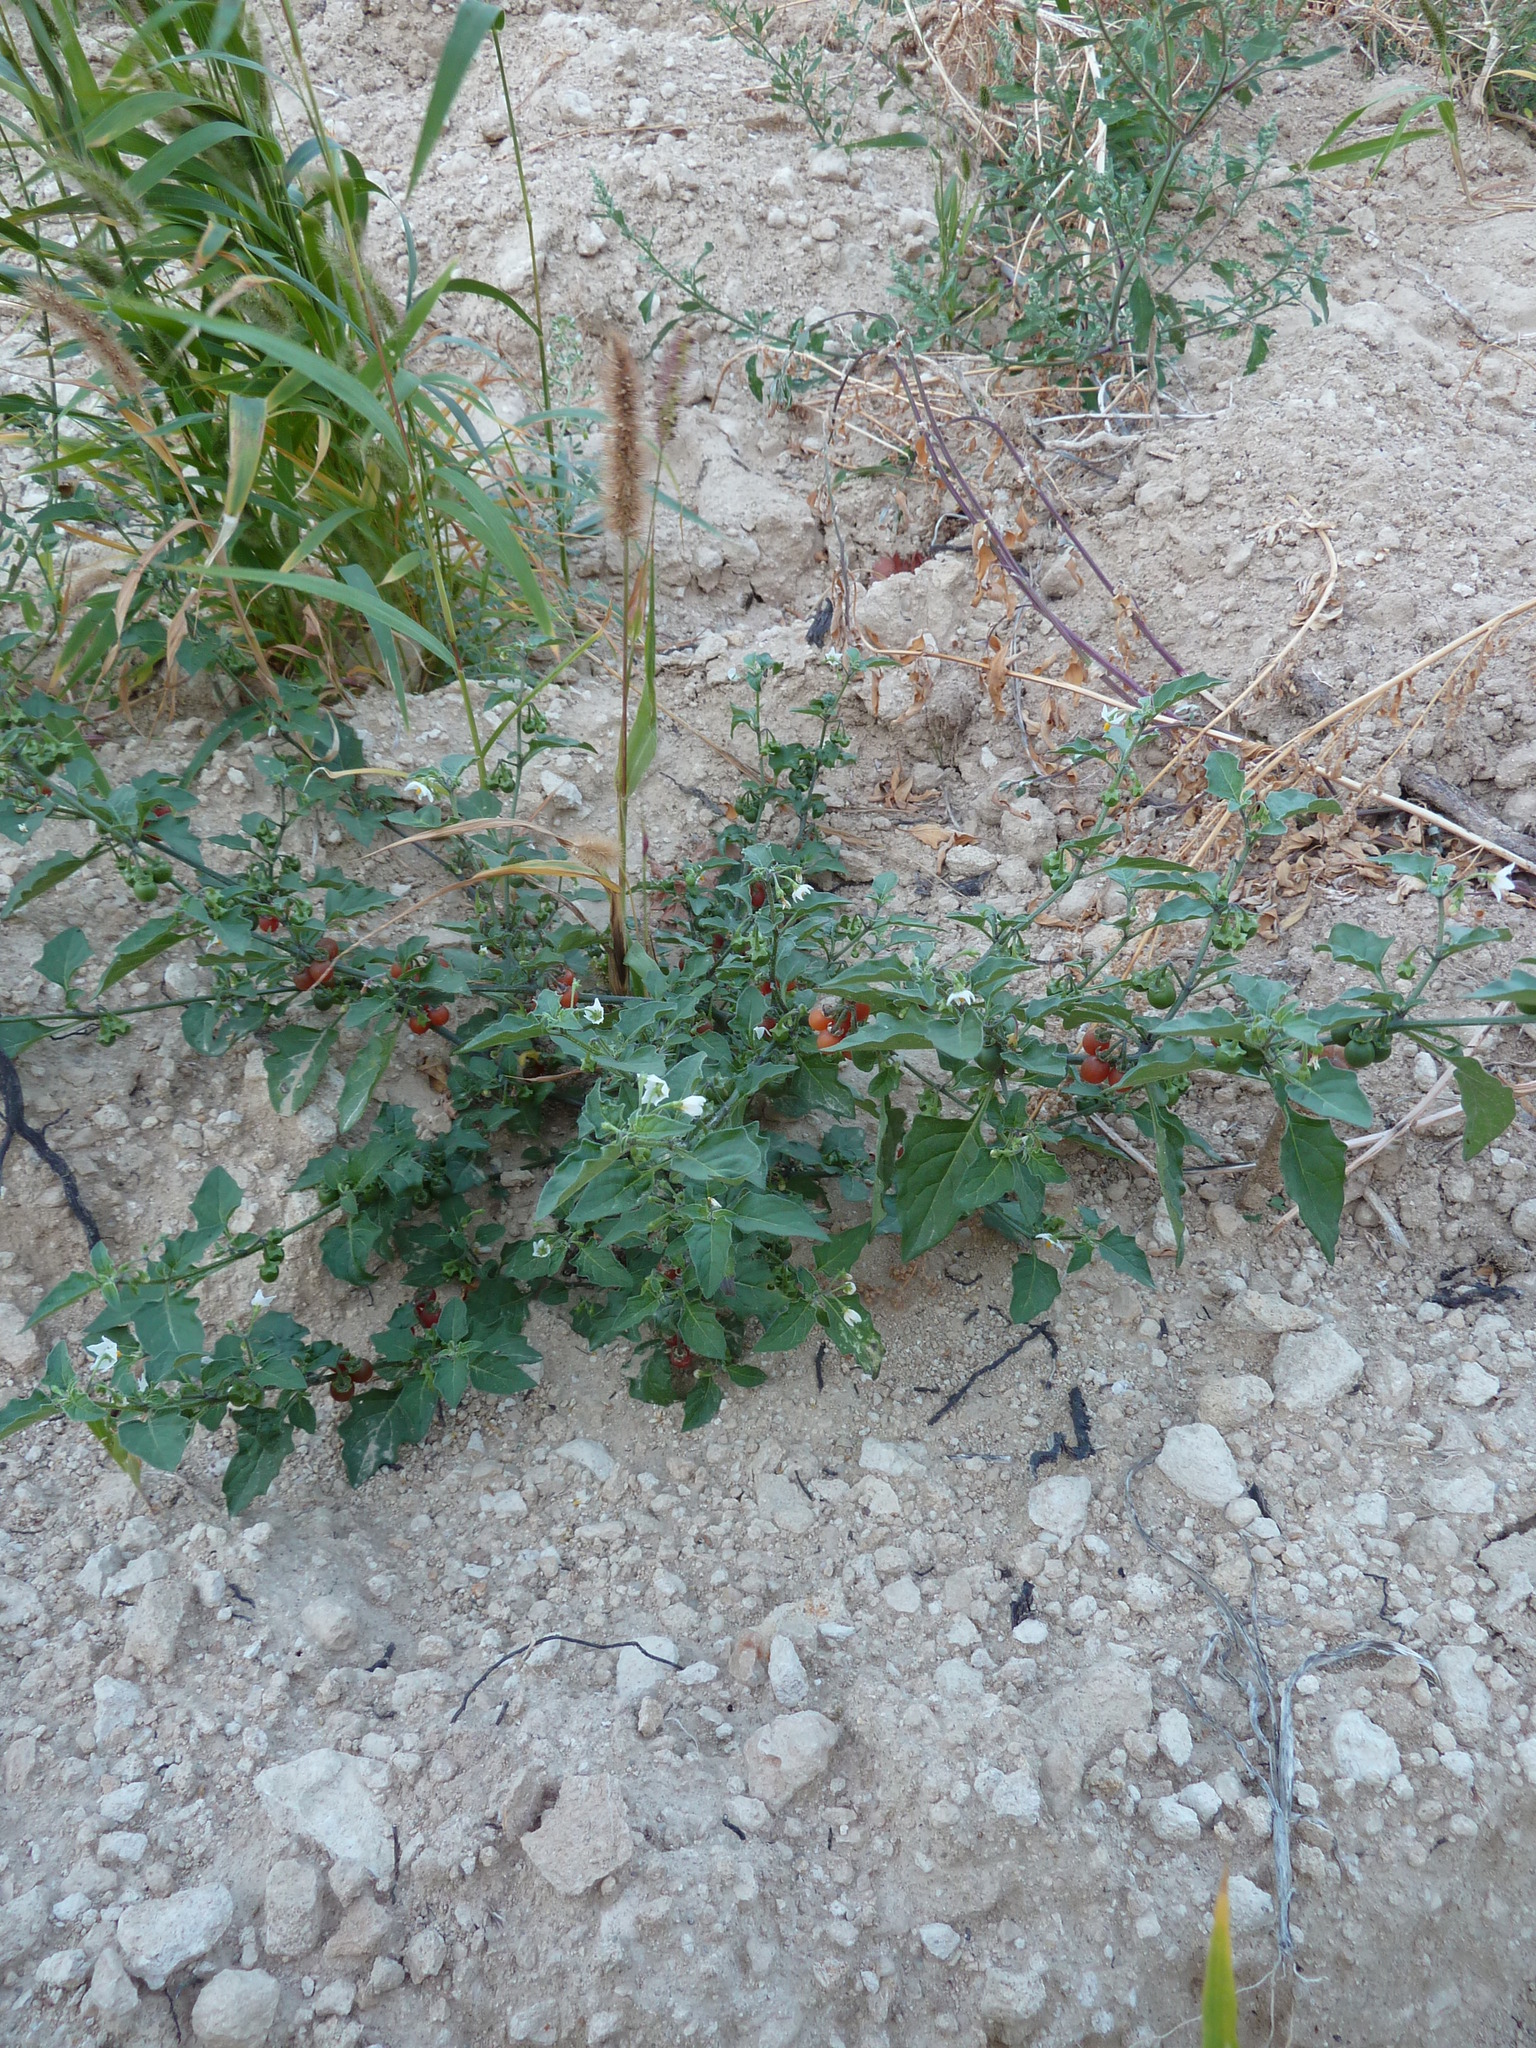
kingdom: Plantae
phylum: Tracheophyta
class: Magnoliopsida
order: Solanales
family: Solanaceae
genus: Solanum
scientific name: Solanum villosum
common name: Red nightshade
